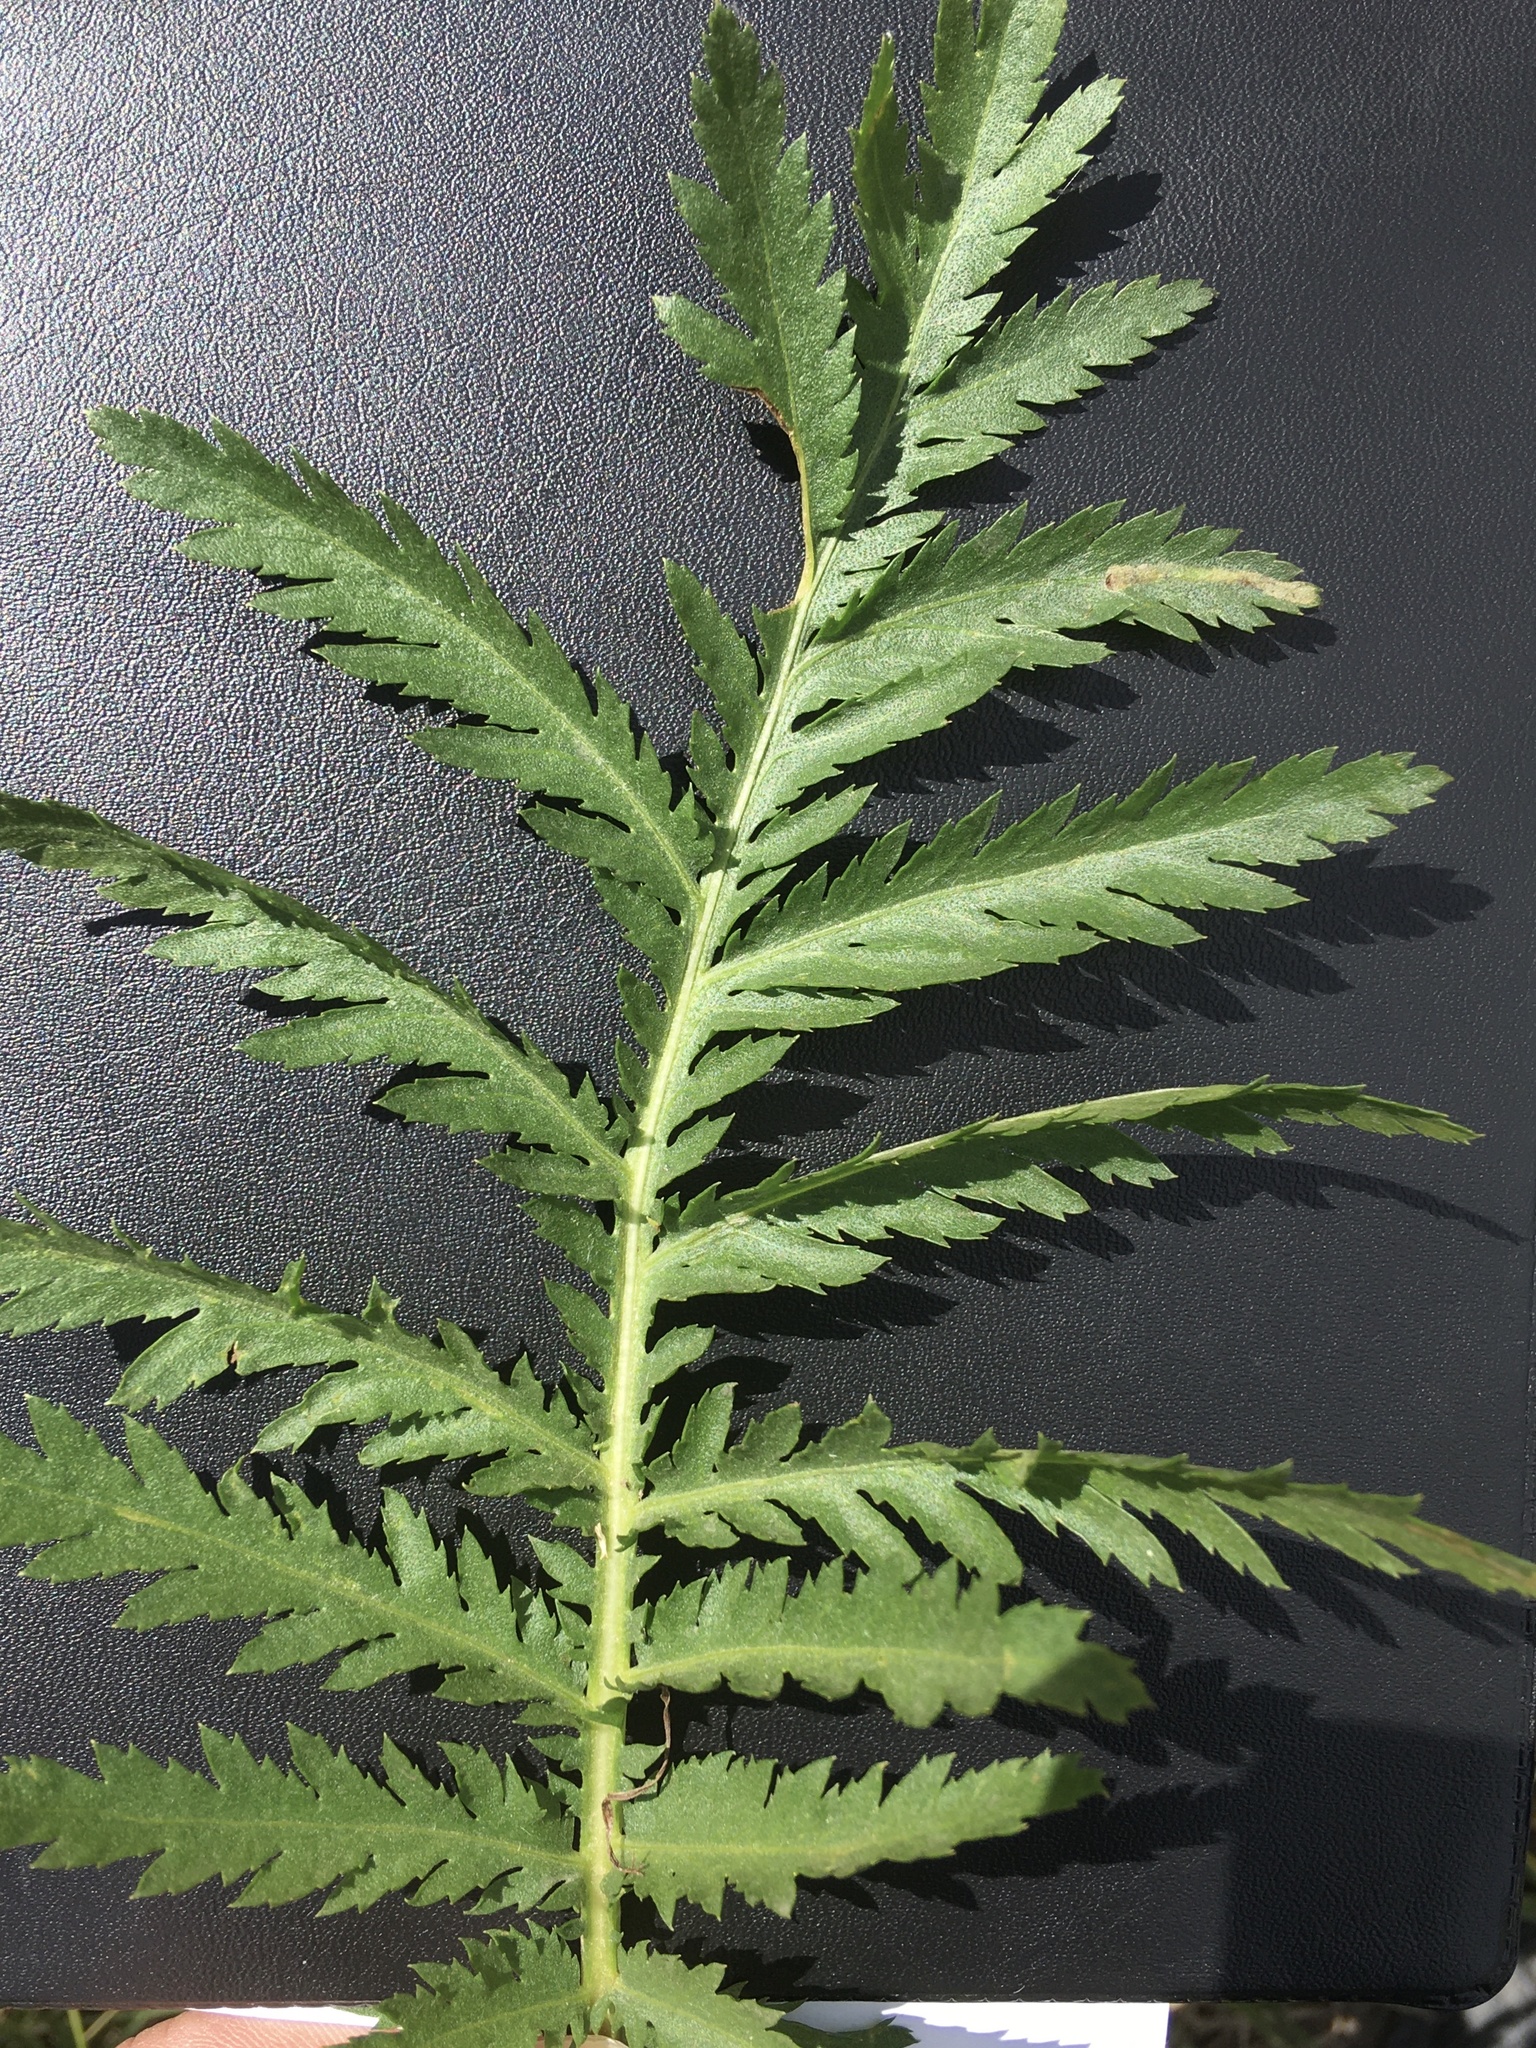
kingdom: Plantae
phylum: Tracheophyta
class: Magnoliopsida
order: Asterales
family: Asteraceae
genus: Tanacetum
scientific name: Tanacetum vulgare
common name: Common tansy
